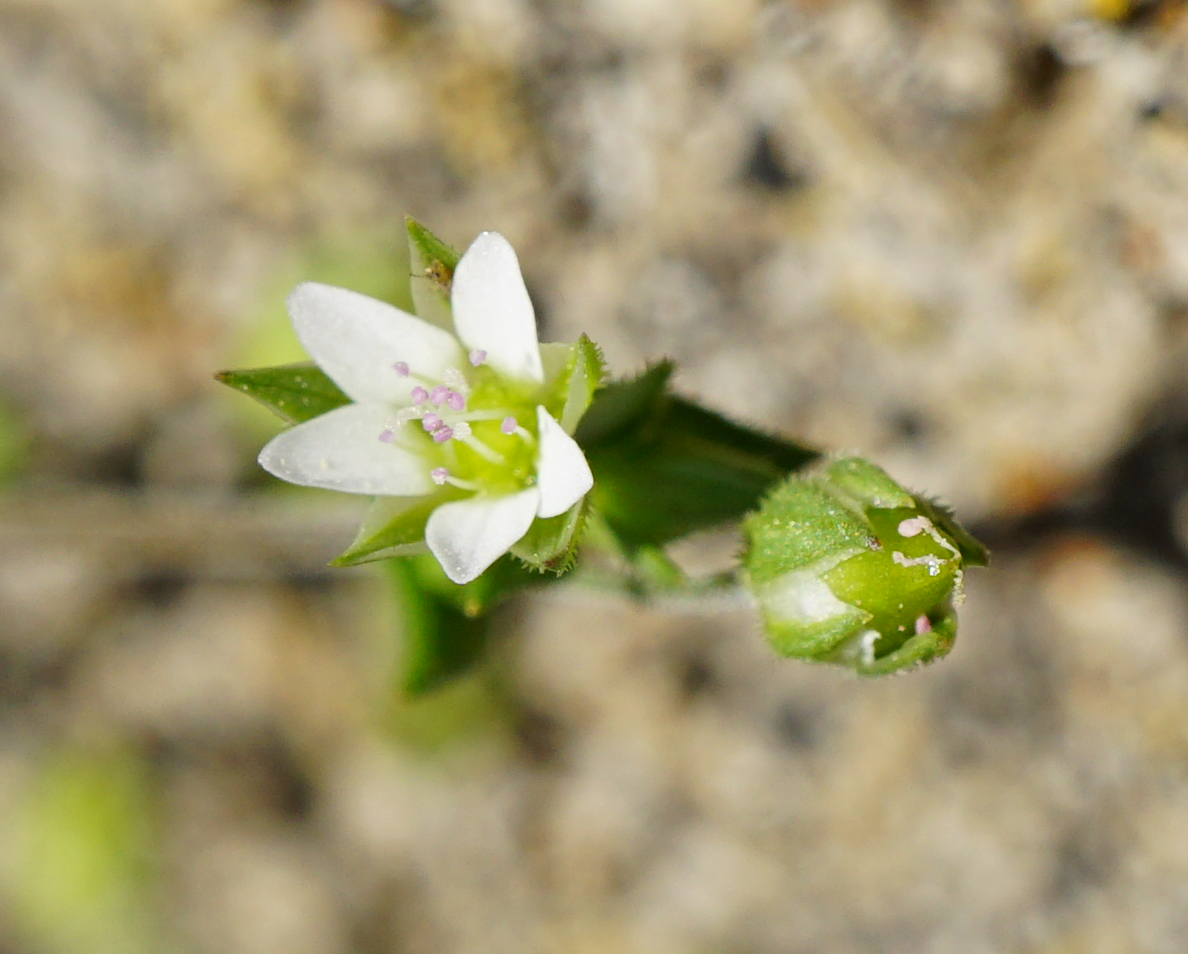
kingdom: Plantae
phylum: Tracheophyta
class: Magnoliopsida
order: Caryophyllales
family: Caryophyllaceae
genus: Arenaria
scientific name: Arenaria serpyllifolia
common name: Thyme-leaved sandwort
